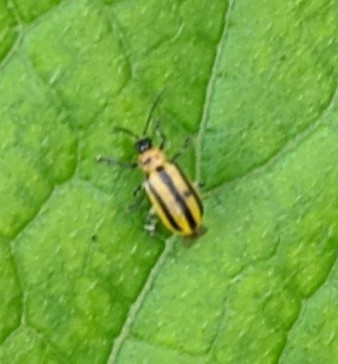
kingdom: Animalia
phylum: Arthropoda
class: Insecta
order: Coleoptera
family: Chrysomelidae
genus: Acalymma
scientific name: Acalymma vittatum
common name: Striped cucumber beetle
